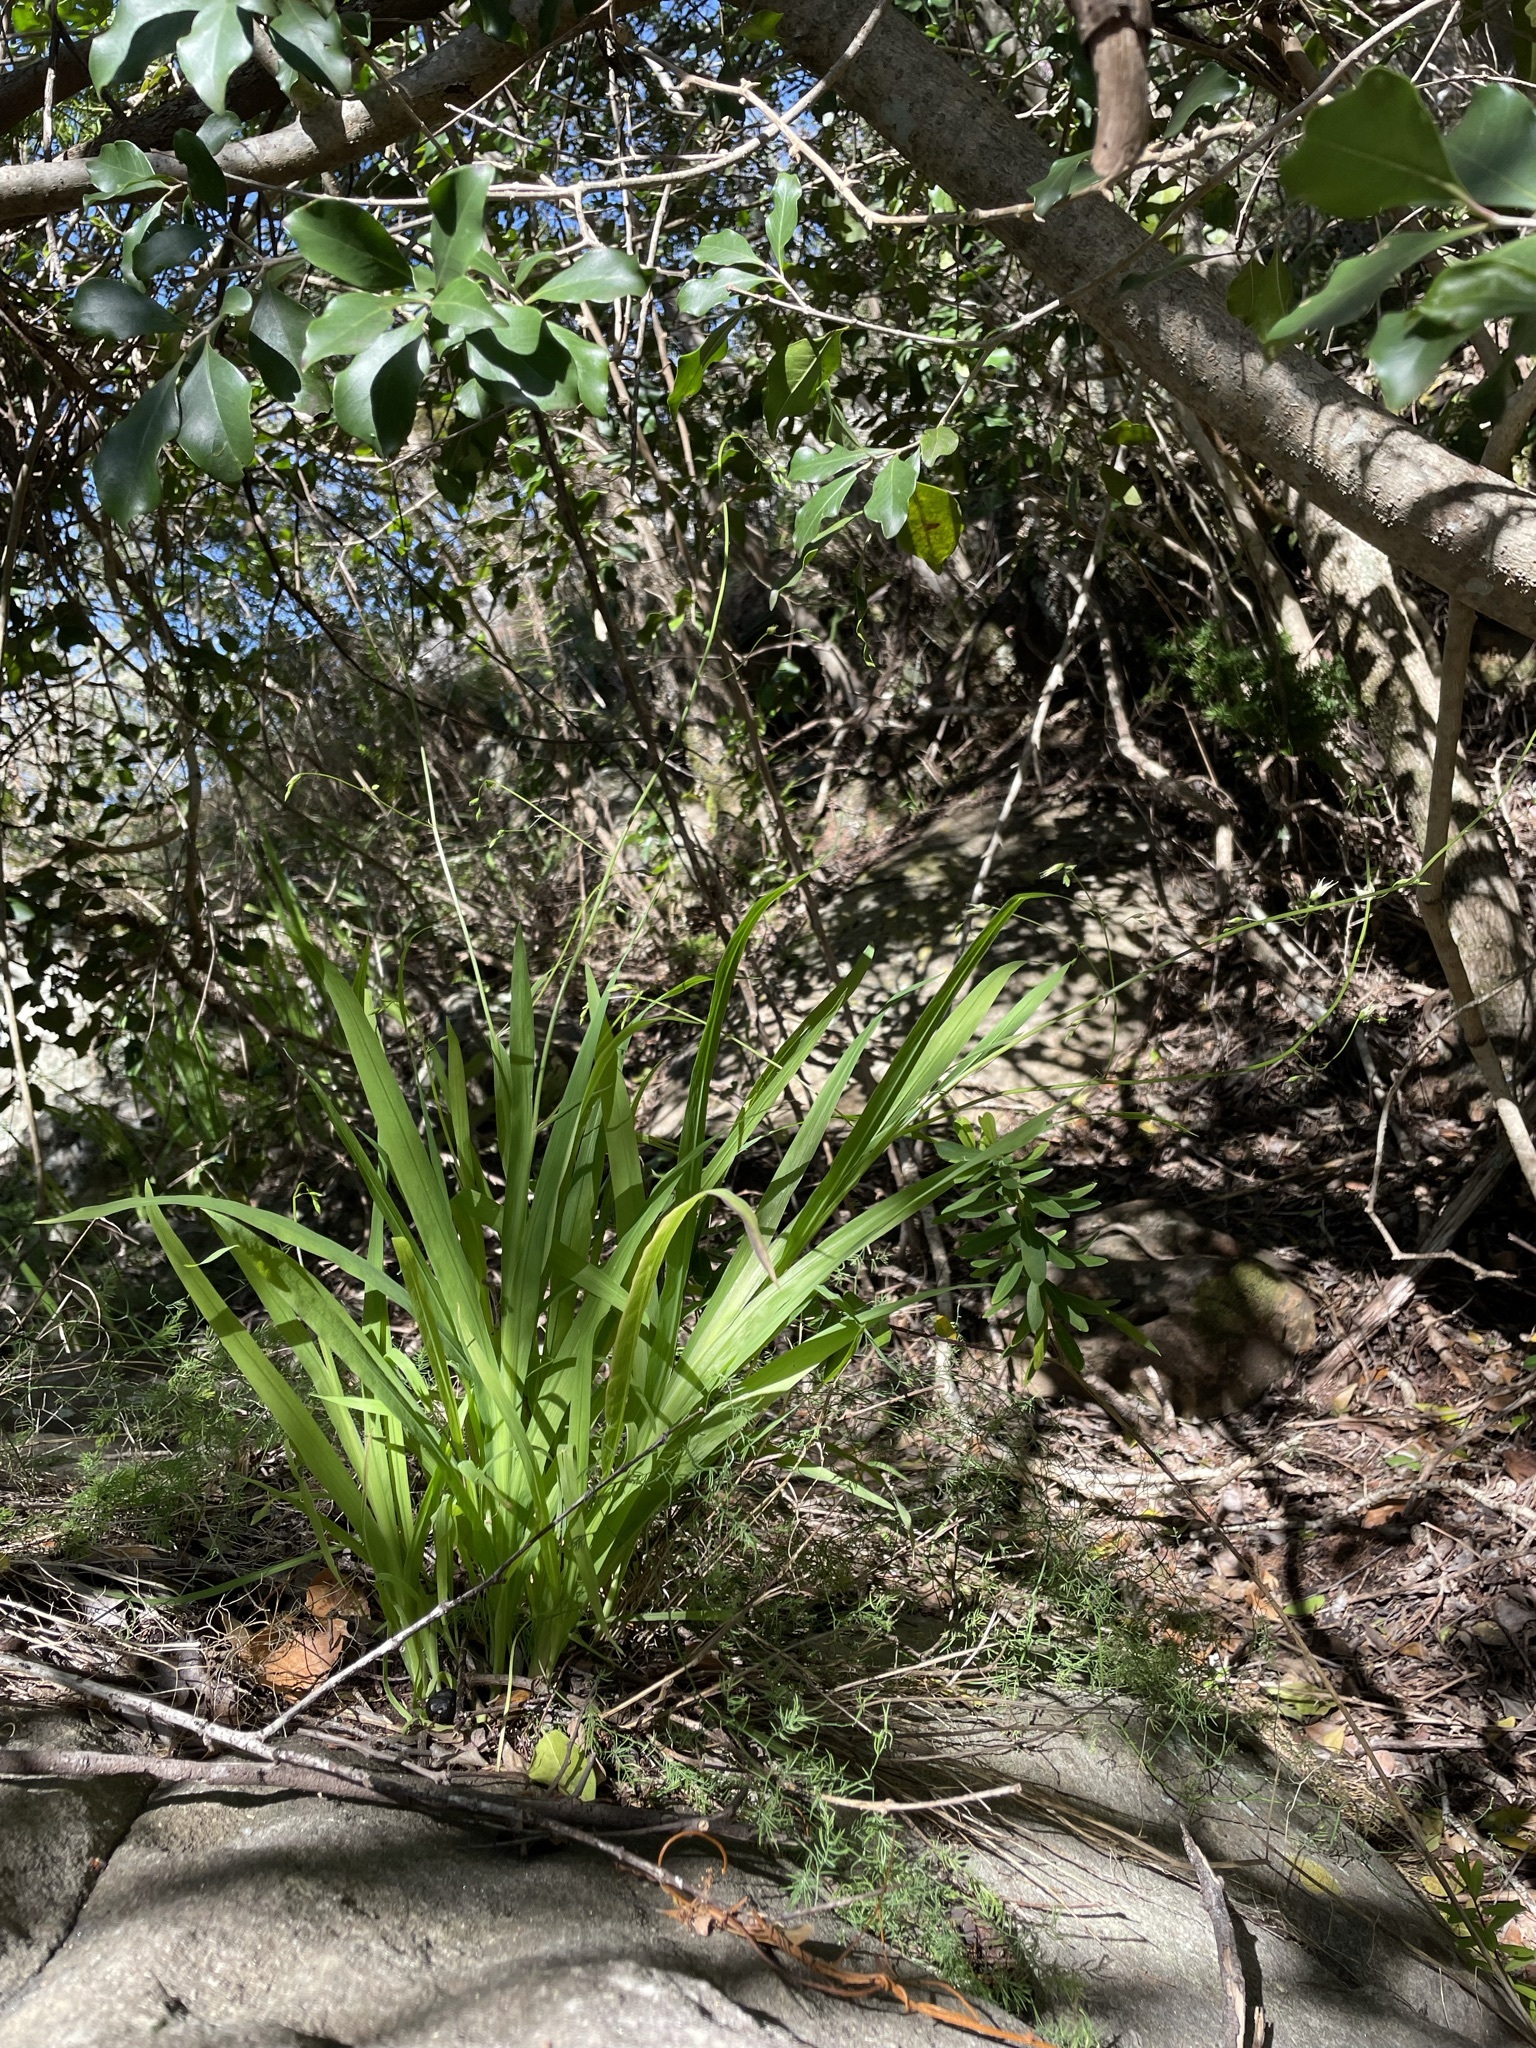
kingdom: Plantae
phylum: Tracheophyta
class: Liliopsida
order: Asparagales
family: Iridaceae
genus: Melasphaerula
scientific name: Melasphaerula graminea
